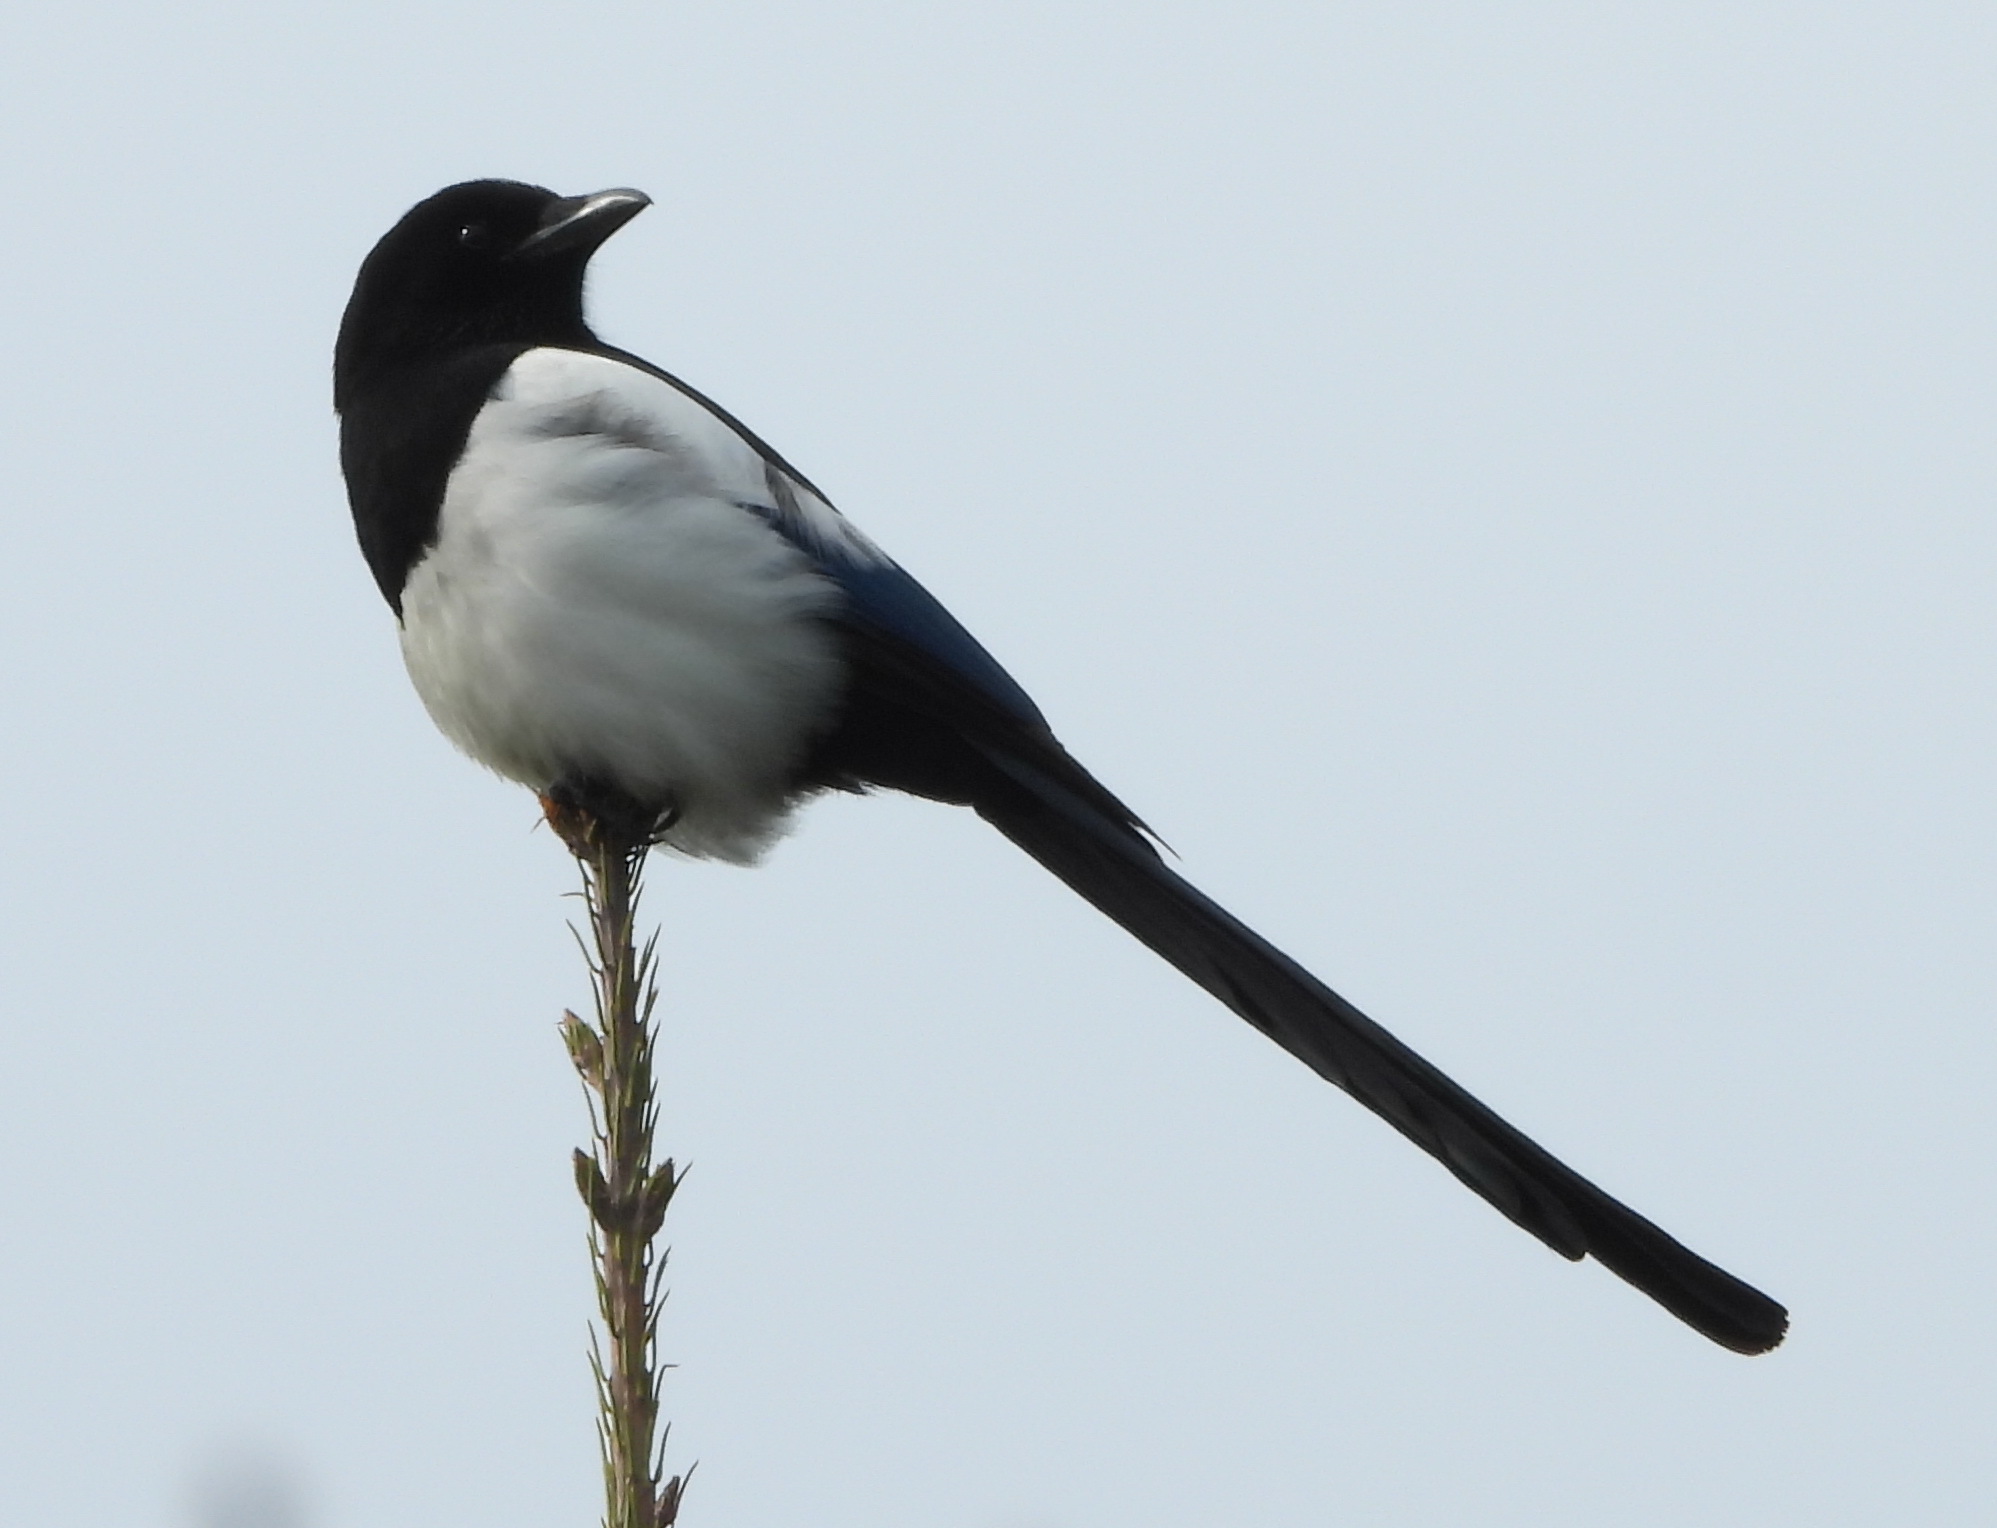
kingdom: Animalia
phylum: Chordata
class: Aves
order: Passeriformes
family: Corvidae
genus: Pica
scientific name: Pica pica
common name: Eurasian magpie
